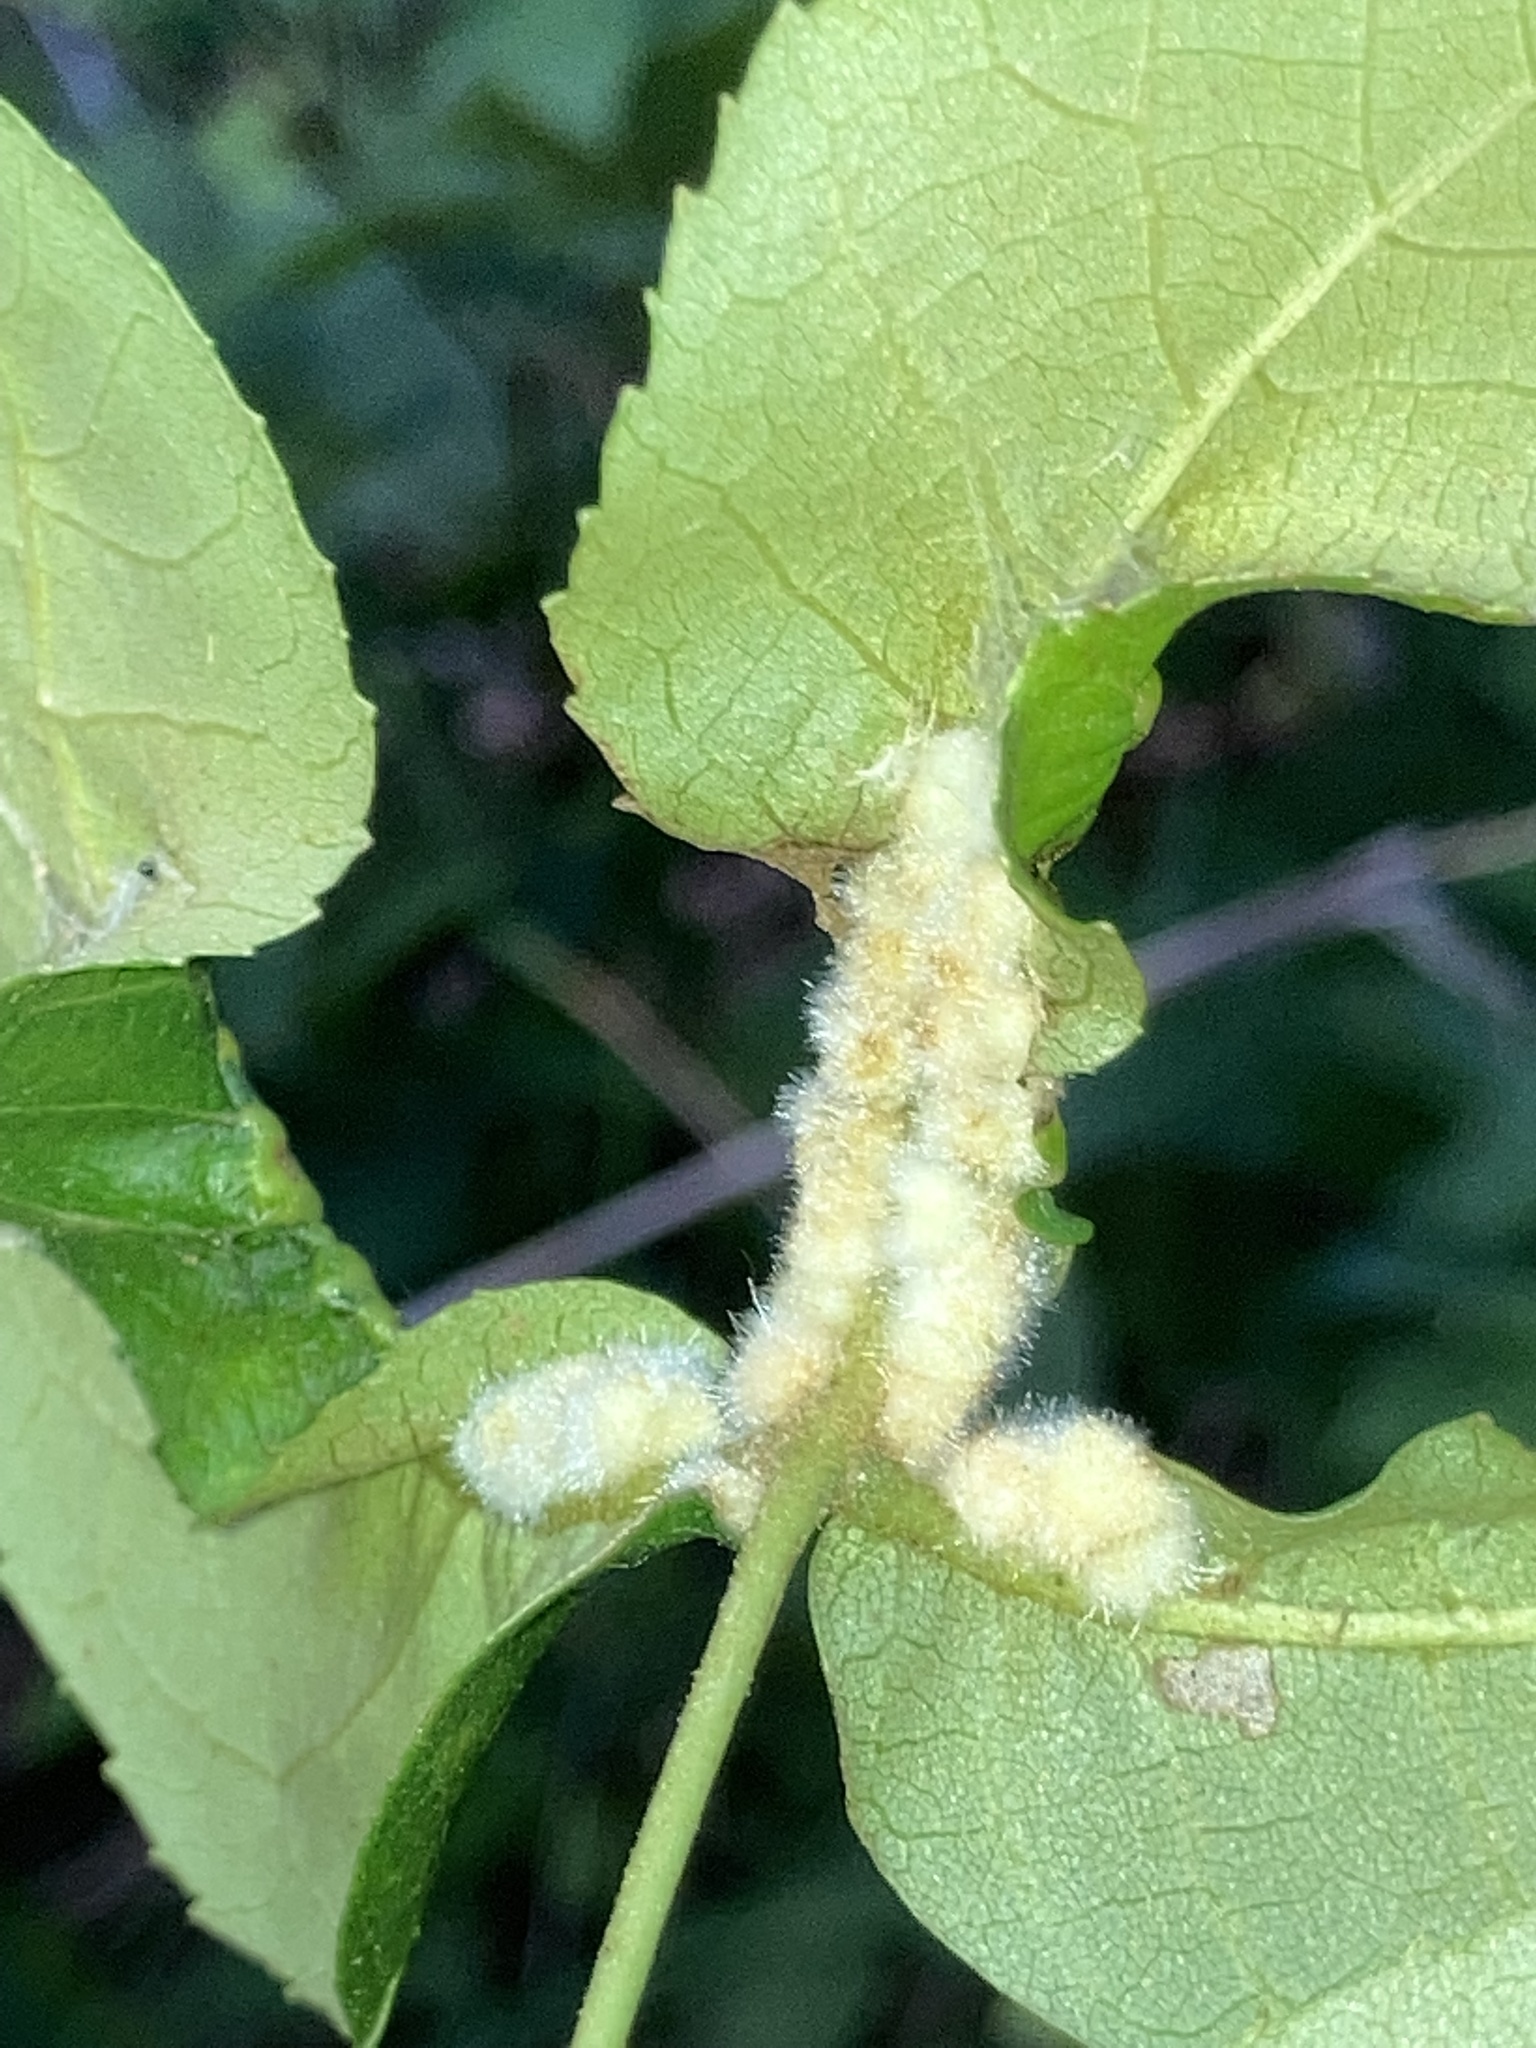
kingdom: Animalia
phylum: Arthropoda
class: Insecta
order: Diptera
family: Cecidomyiidae
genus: Caryomyia
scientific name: Caryomyia aggregata
